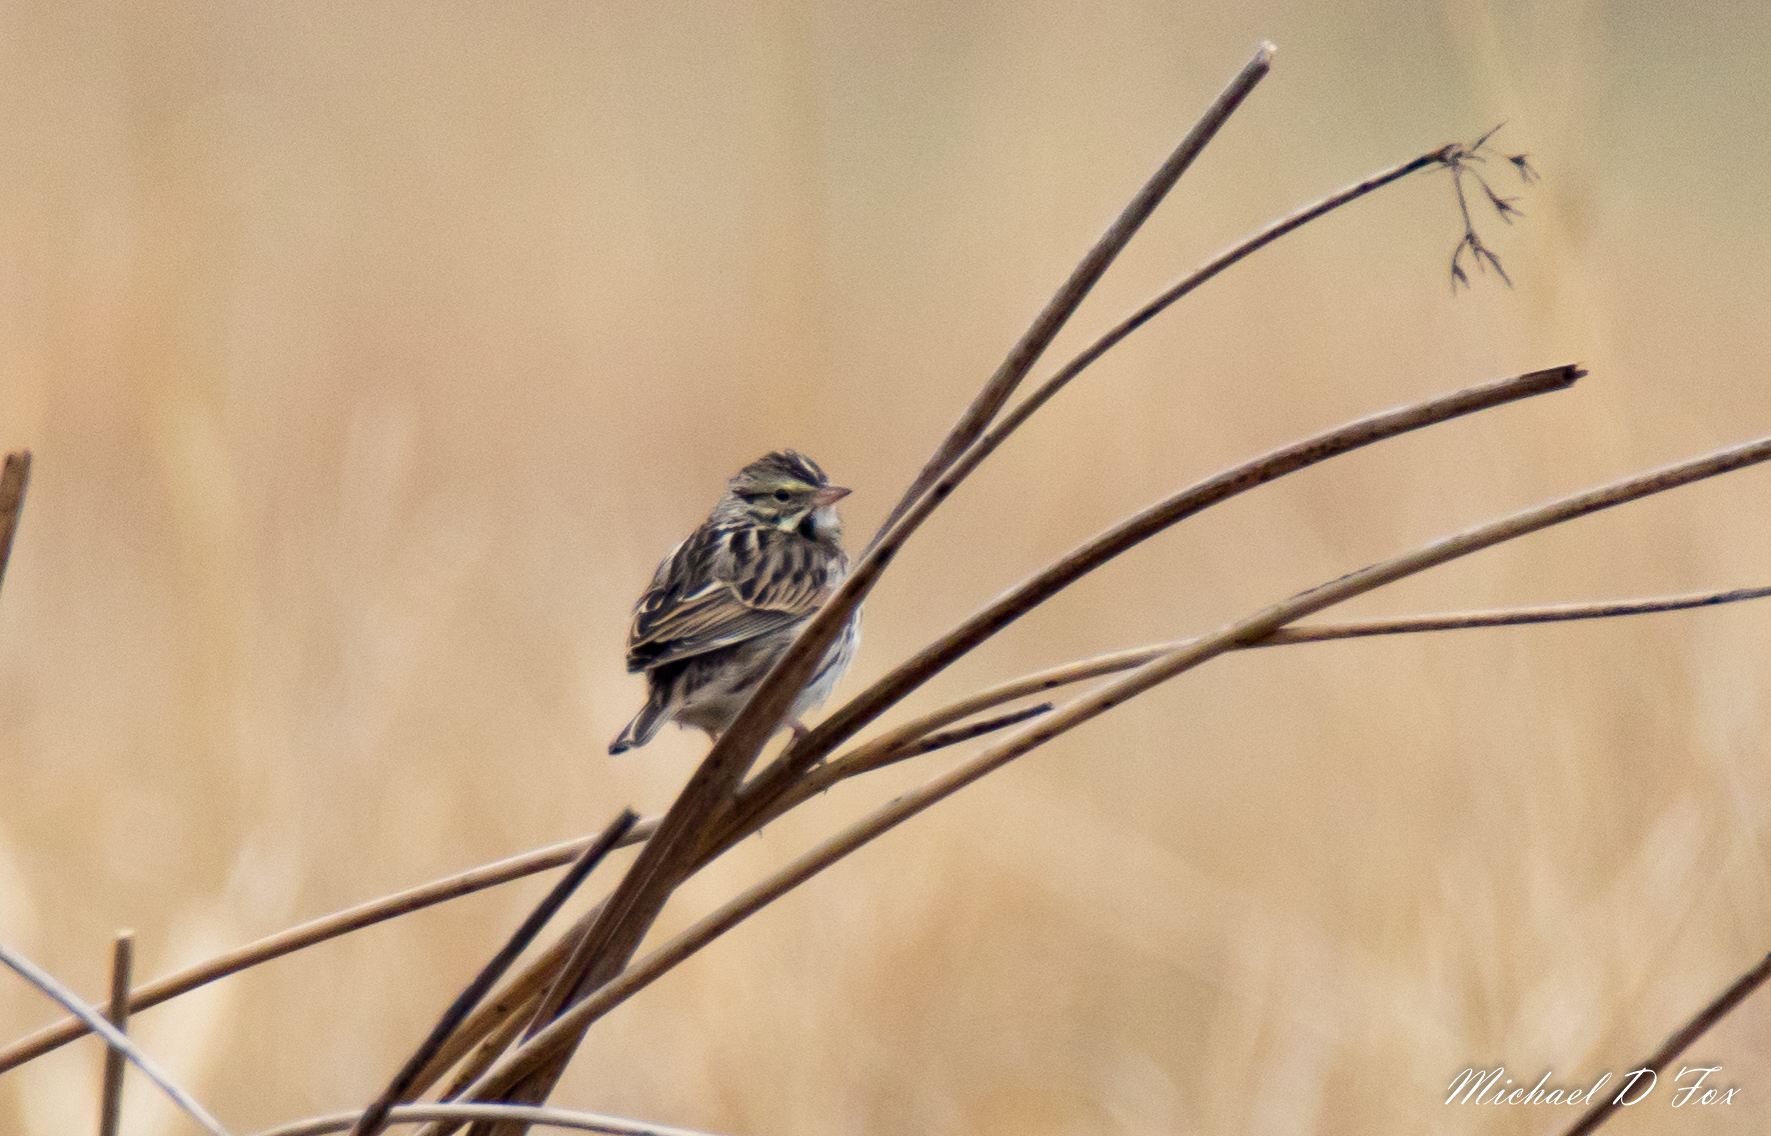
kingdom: Animalia
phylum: Chordata
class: Aves
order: Passeriformes
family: Passerellidae
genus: Passerculus
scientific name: Passerculus sandwichensis
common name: Savannah sparrow
